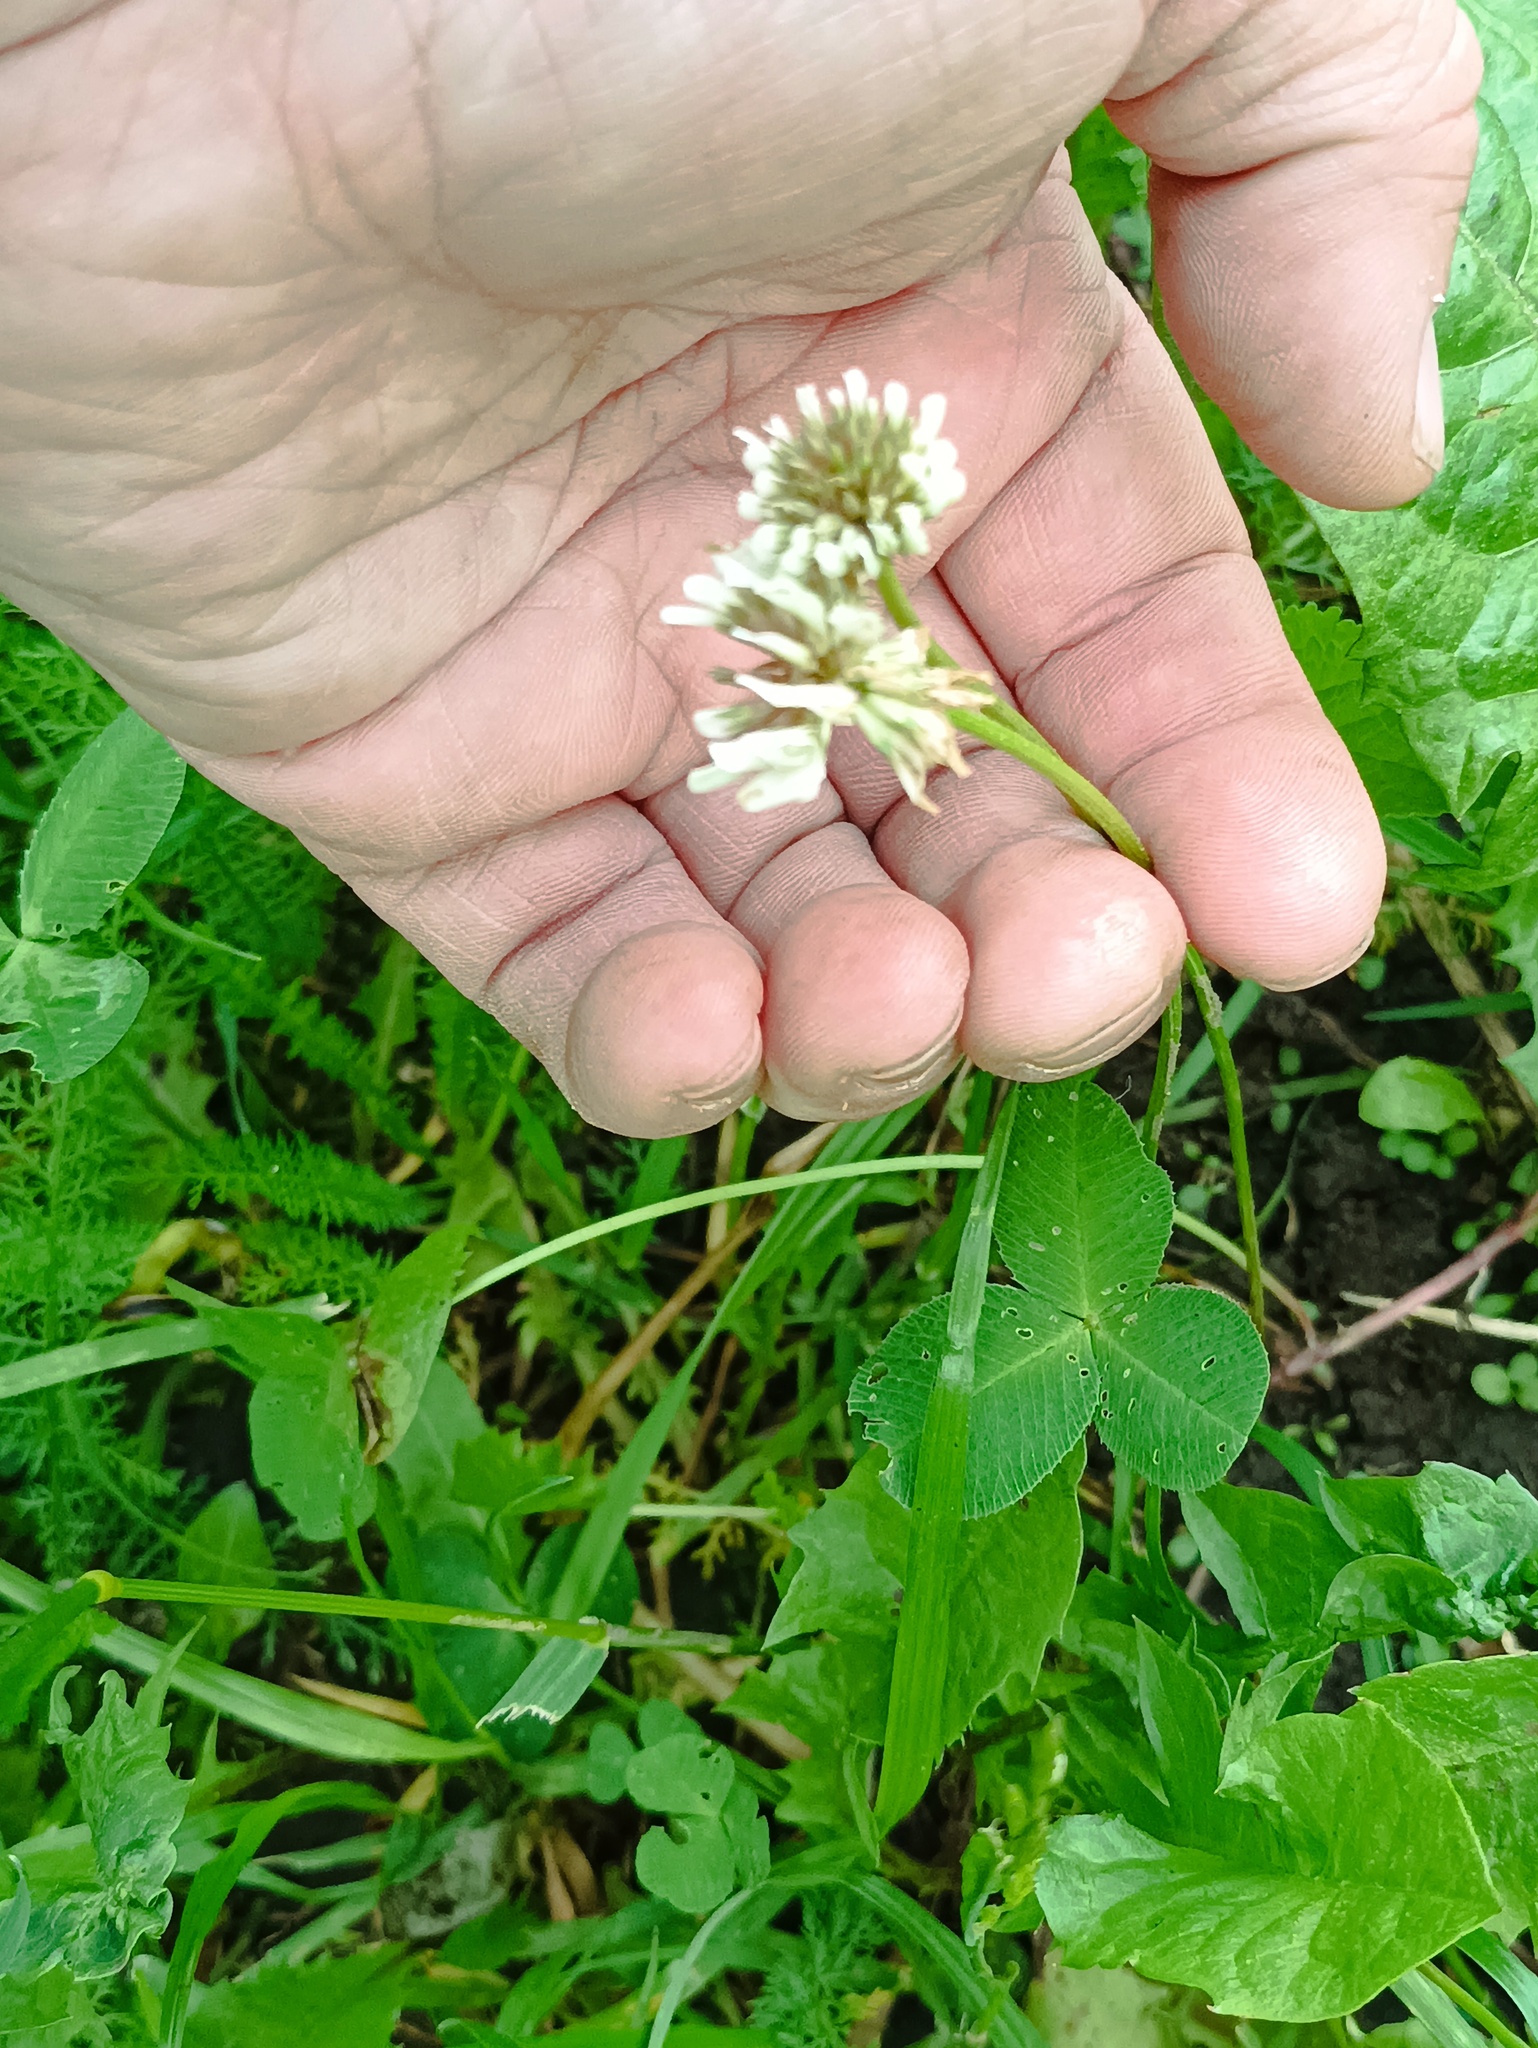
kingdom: Plantae
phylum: Tracheophyta
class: Magnoliopsida
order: Fabales
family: Fabaceae
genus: Trifolium
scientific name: Trifolium repens
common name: White clover
